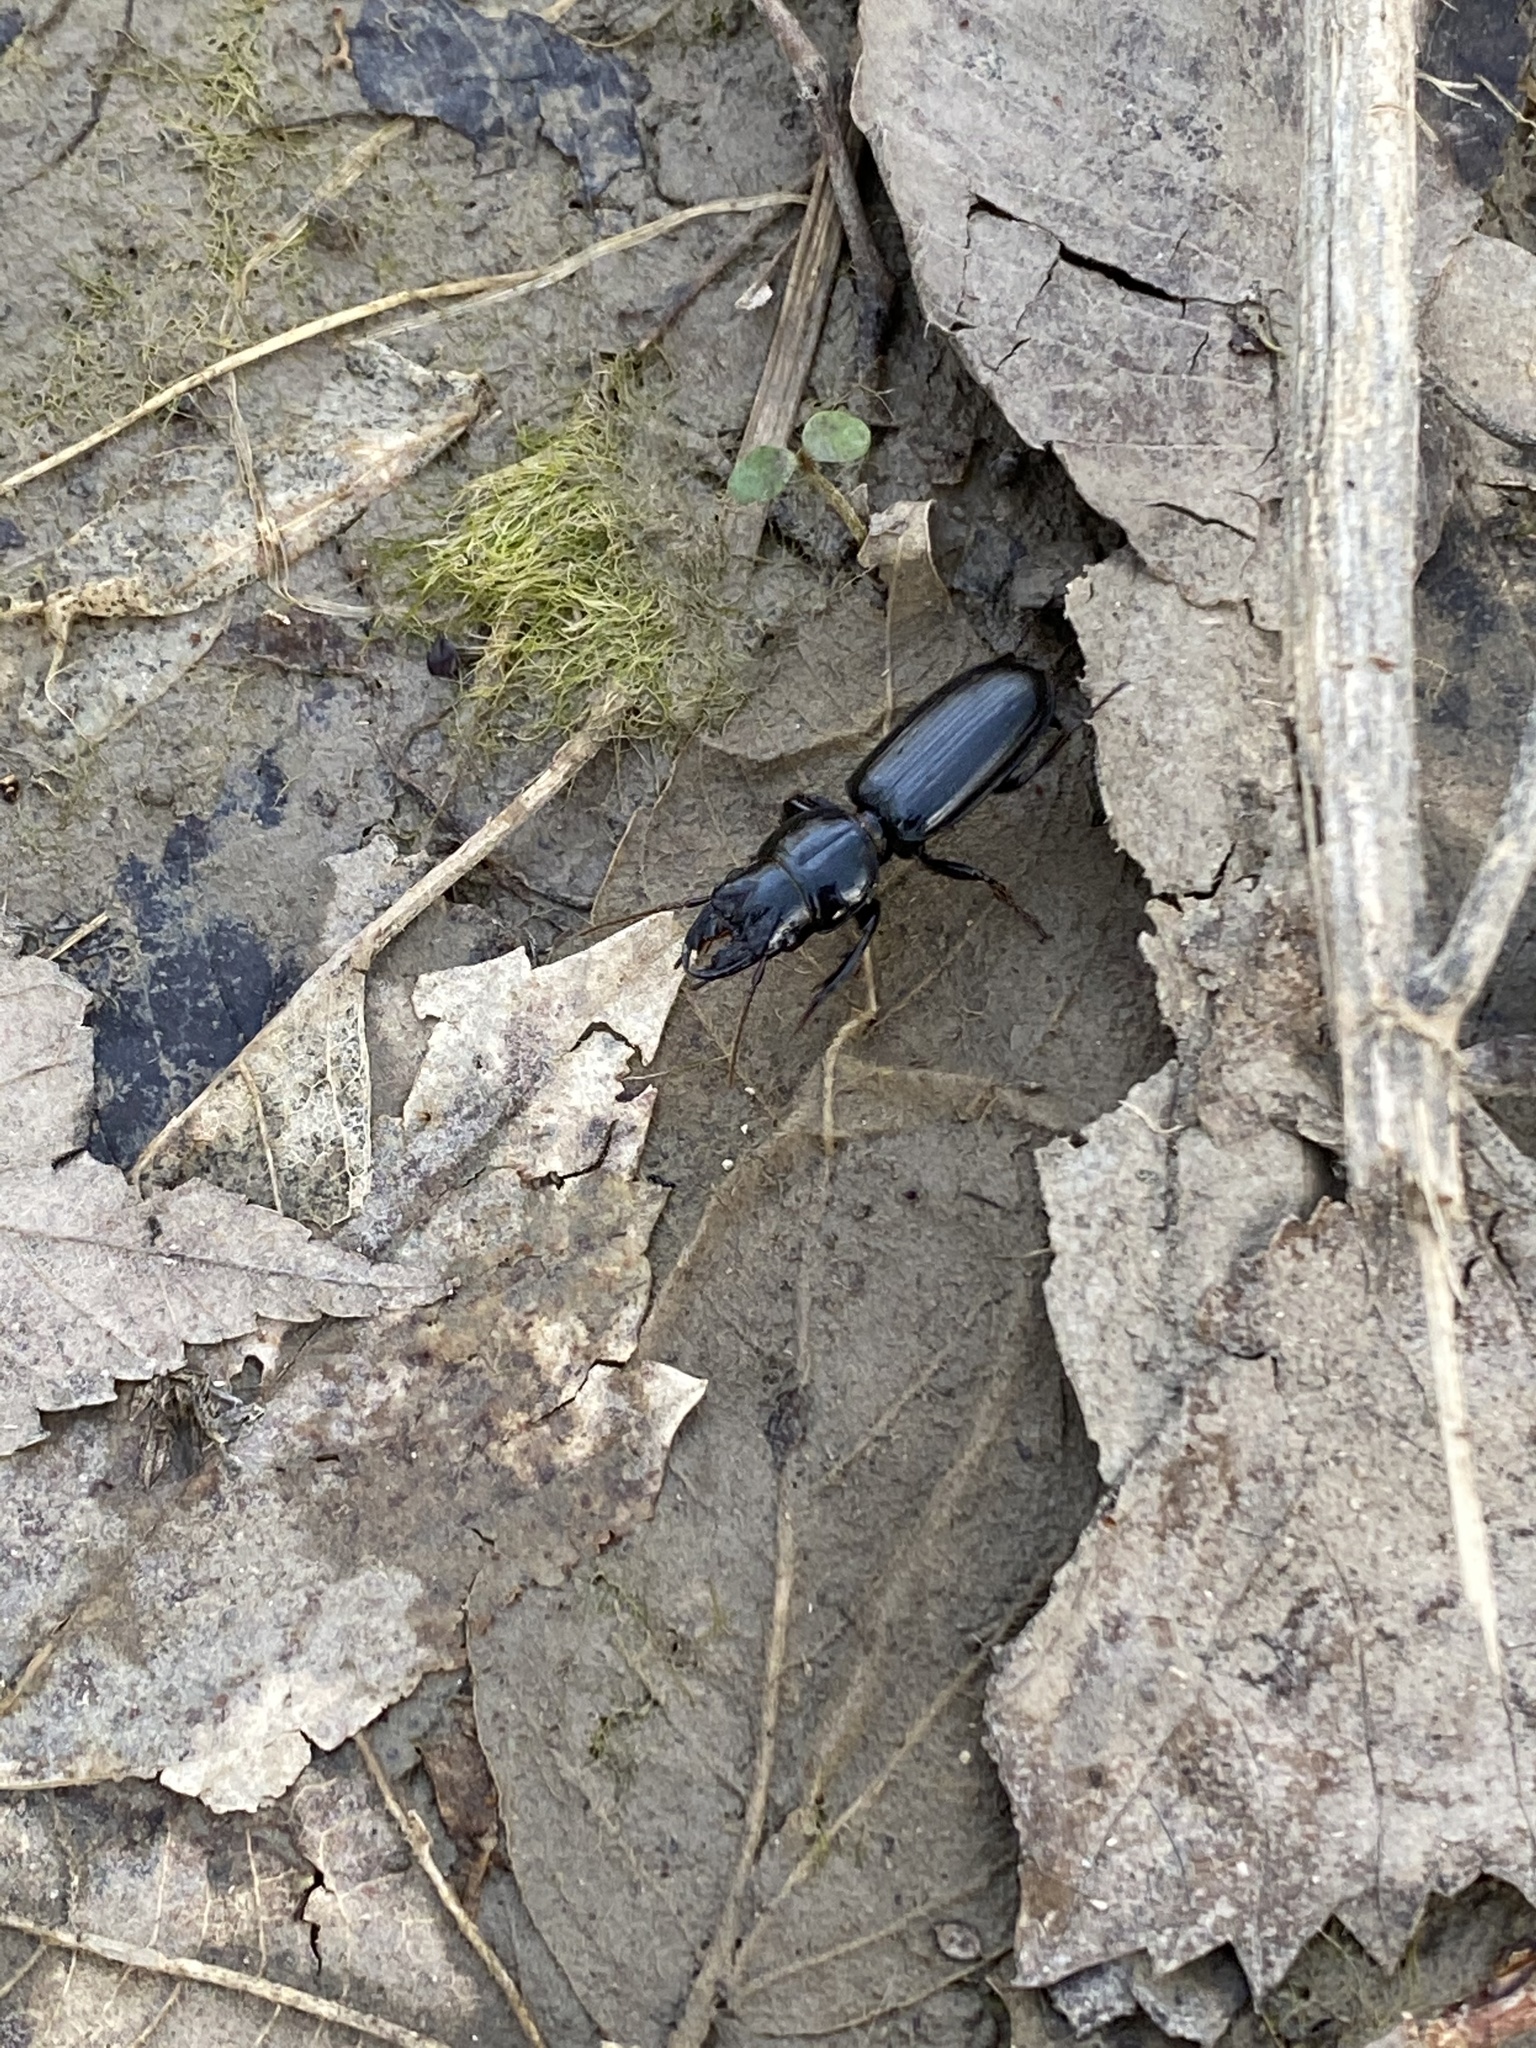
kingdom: Animalia
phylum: Arthropoda
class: Insecta
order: Coleoptera
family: Carabidae
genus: Scarites
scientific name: Scarites subterraneus
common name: Big-headed ground beetle
